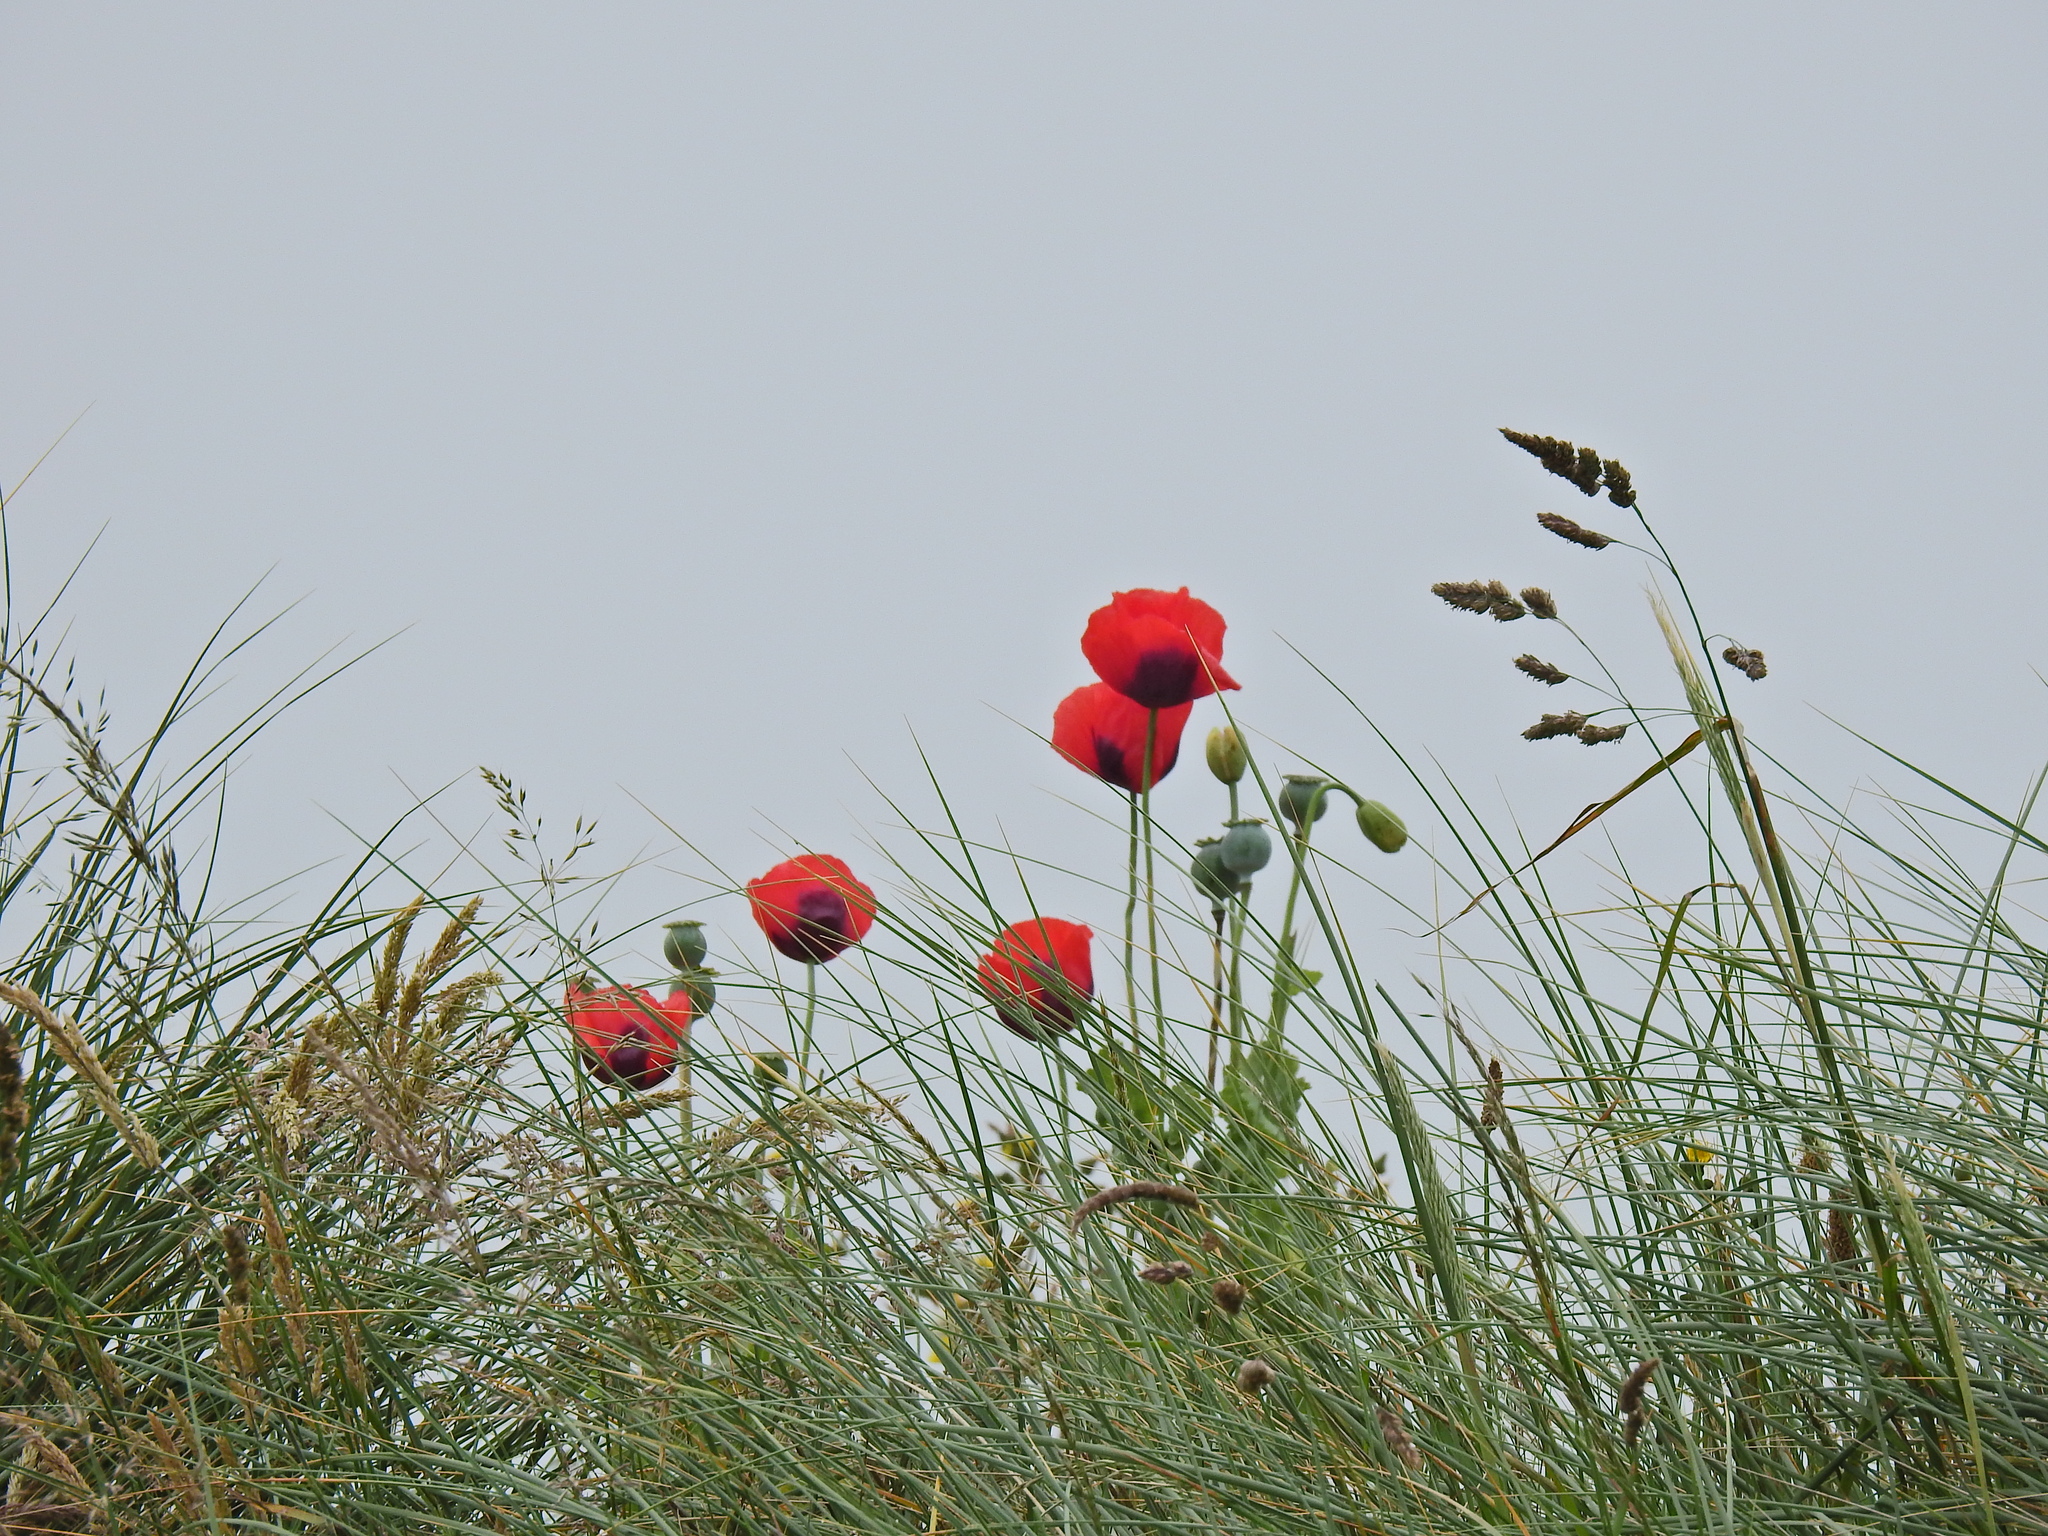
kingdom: Plantae
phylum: Tracheophyta
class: Magnoliopsida
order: Ranunculales
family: Papaveraceae
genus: Papaver
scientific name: Papaver somniferum
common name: Opium poppy
